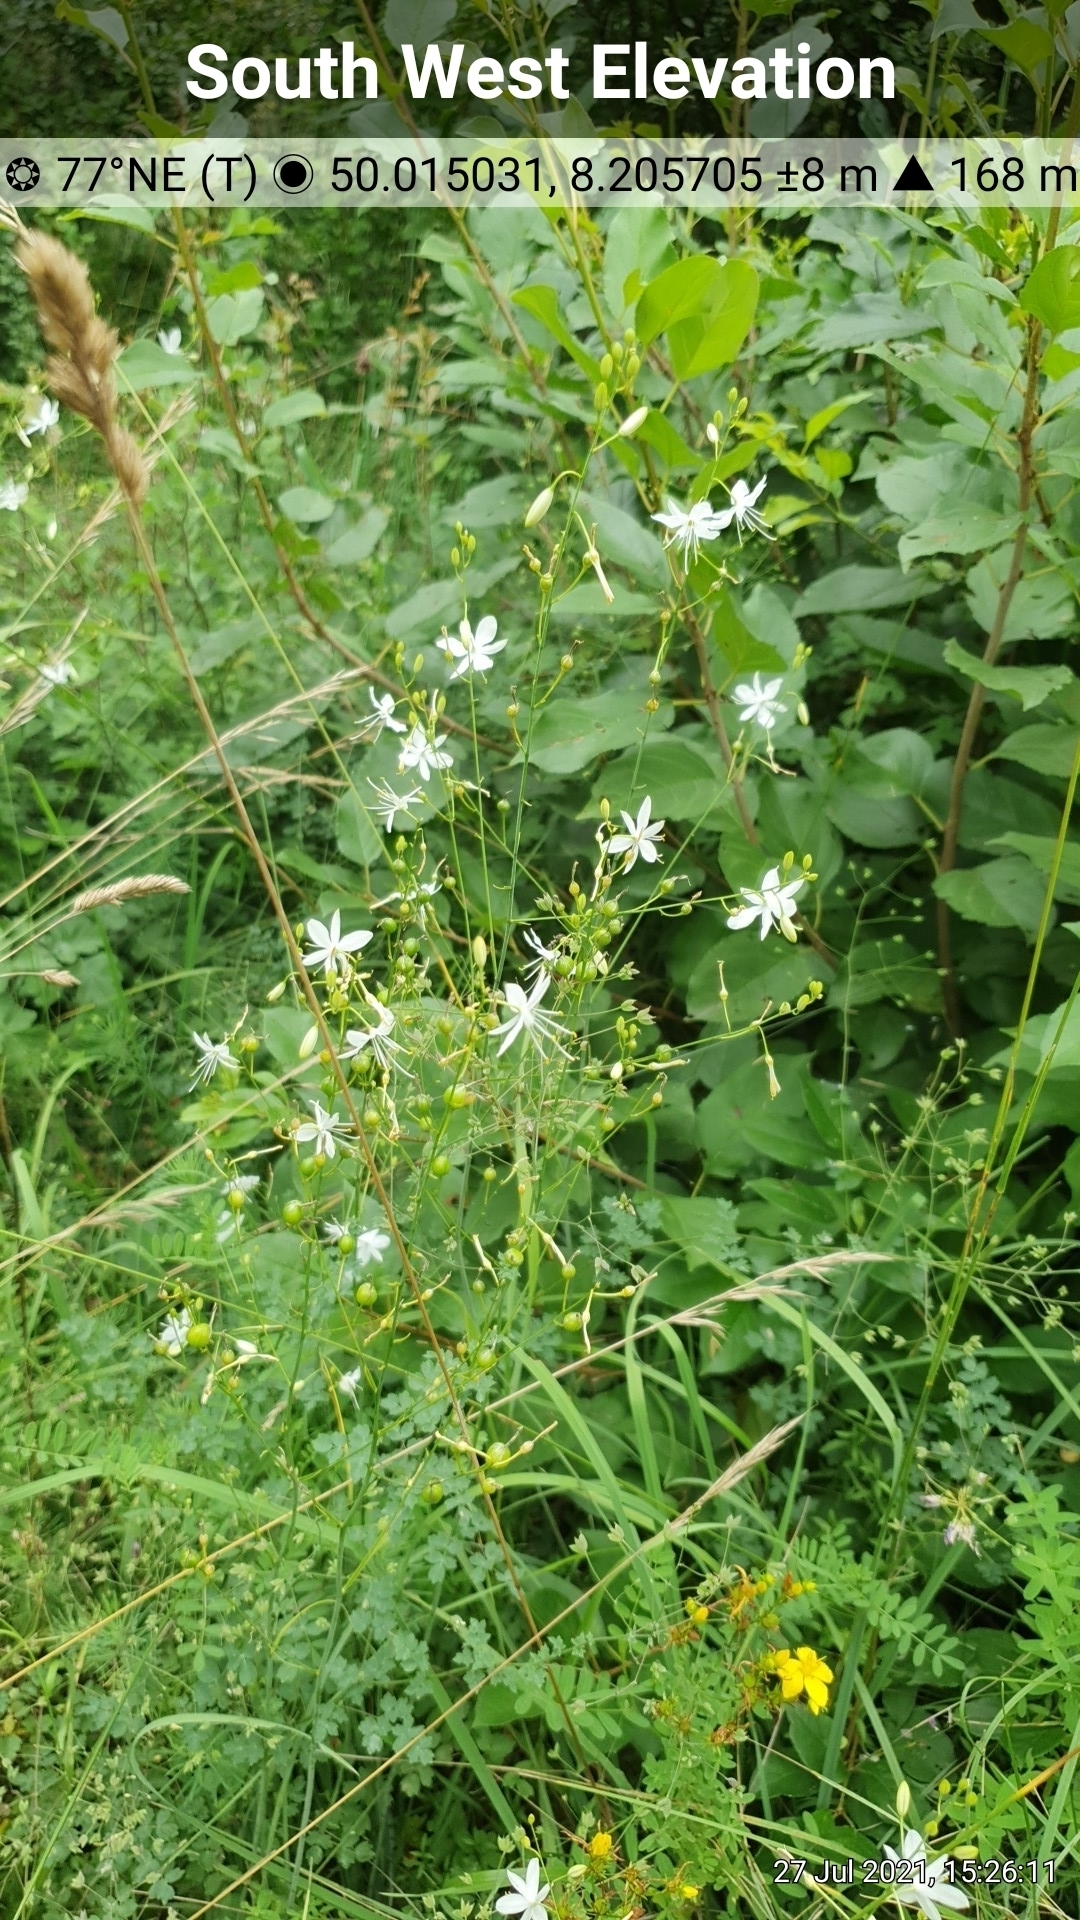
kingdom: Plantae
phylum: Tracheophyta
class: Liliopsida
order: Asparagales
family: Asparagaceae
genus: Anthericum
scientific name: Anthericum ramosum
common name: Branched st. bernard's-lily
